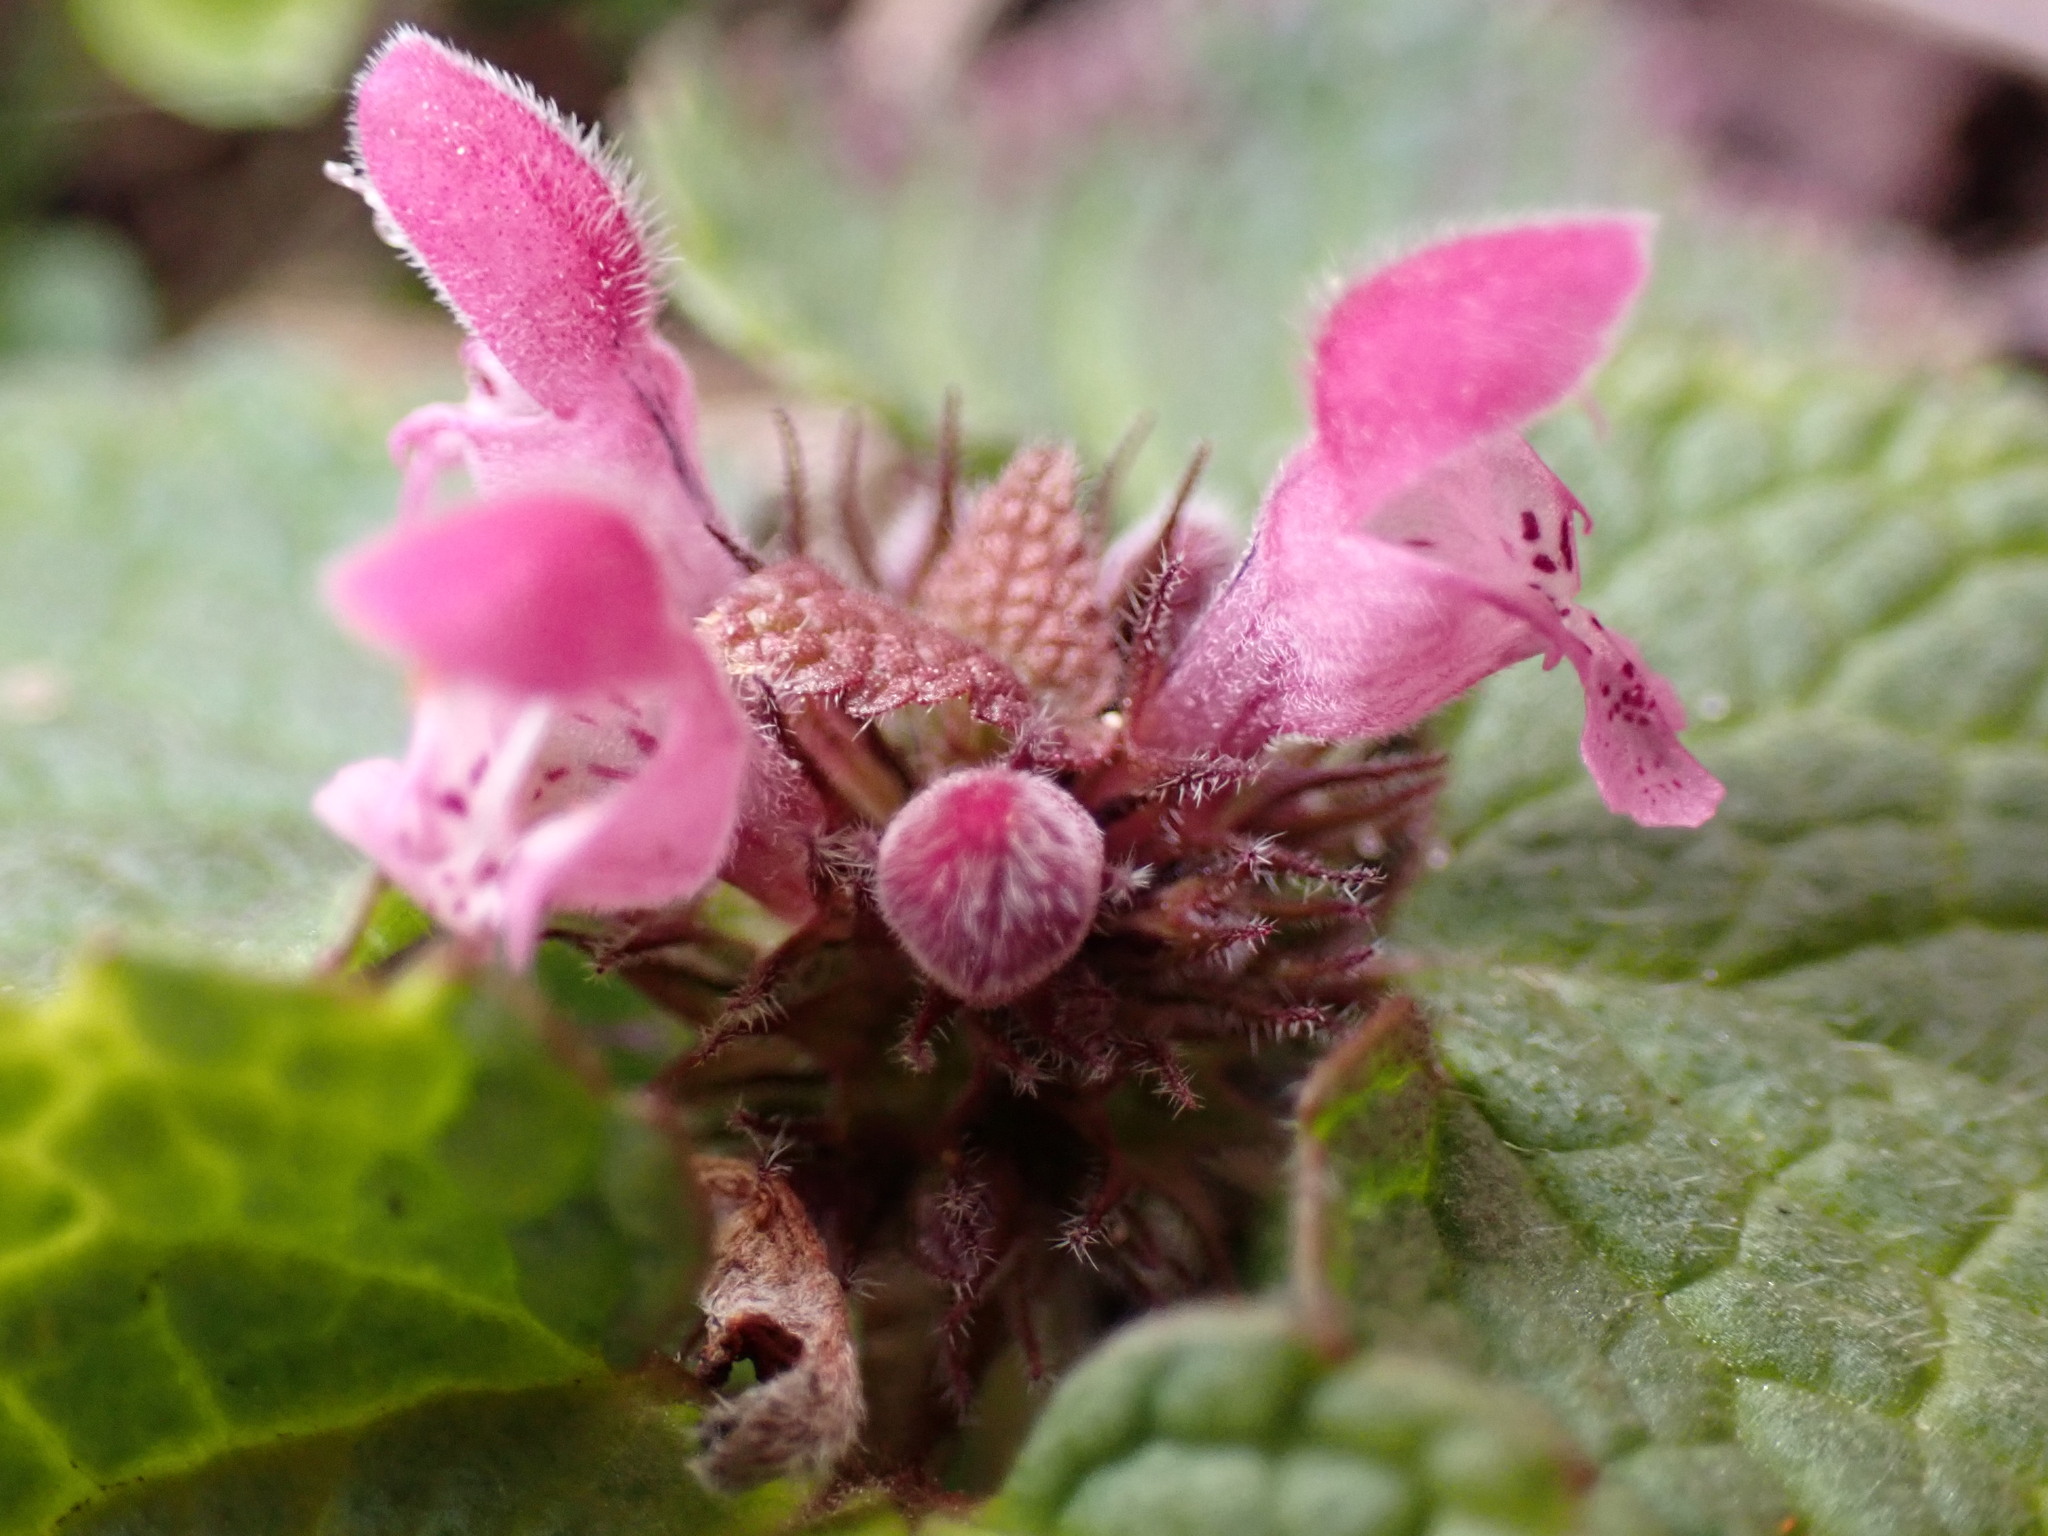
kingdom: Plantae
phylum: Tracheophyta
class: Magnoliopsida
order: Lamiales
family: Lamiaceae
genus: Lamium
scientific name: Lamium purpureum
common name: Red dead-nettle
